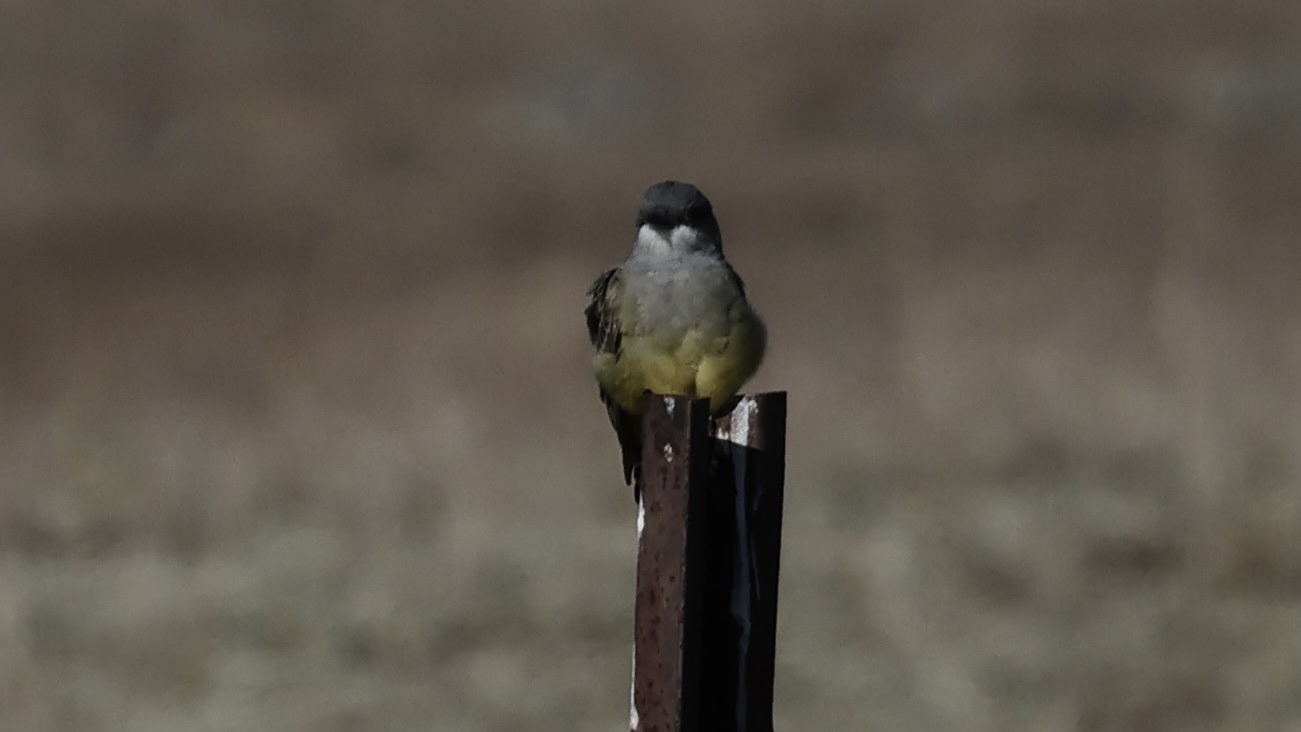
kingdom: Animalia
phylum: Chordata
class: Aves
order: Passeriformes
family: Tyrannidae
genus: Tyrannus
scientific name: Tyrannus vociferans
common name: Cassin's kingbird
